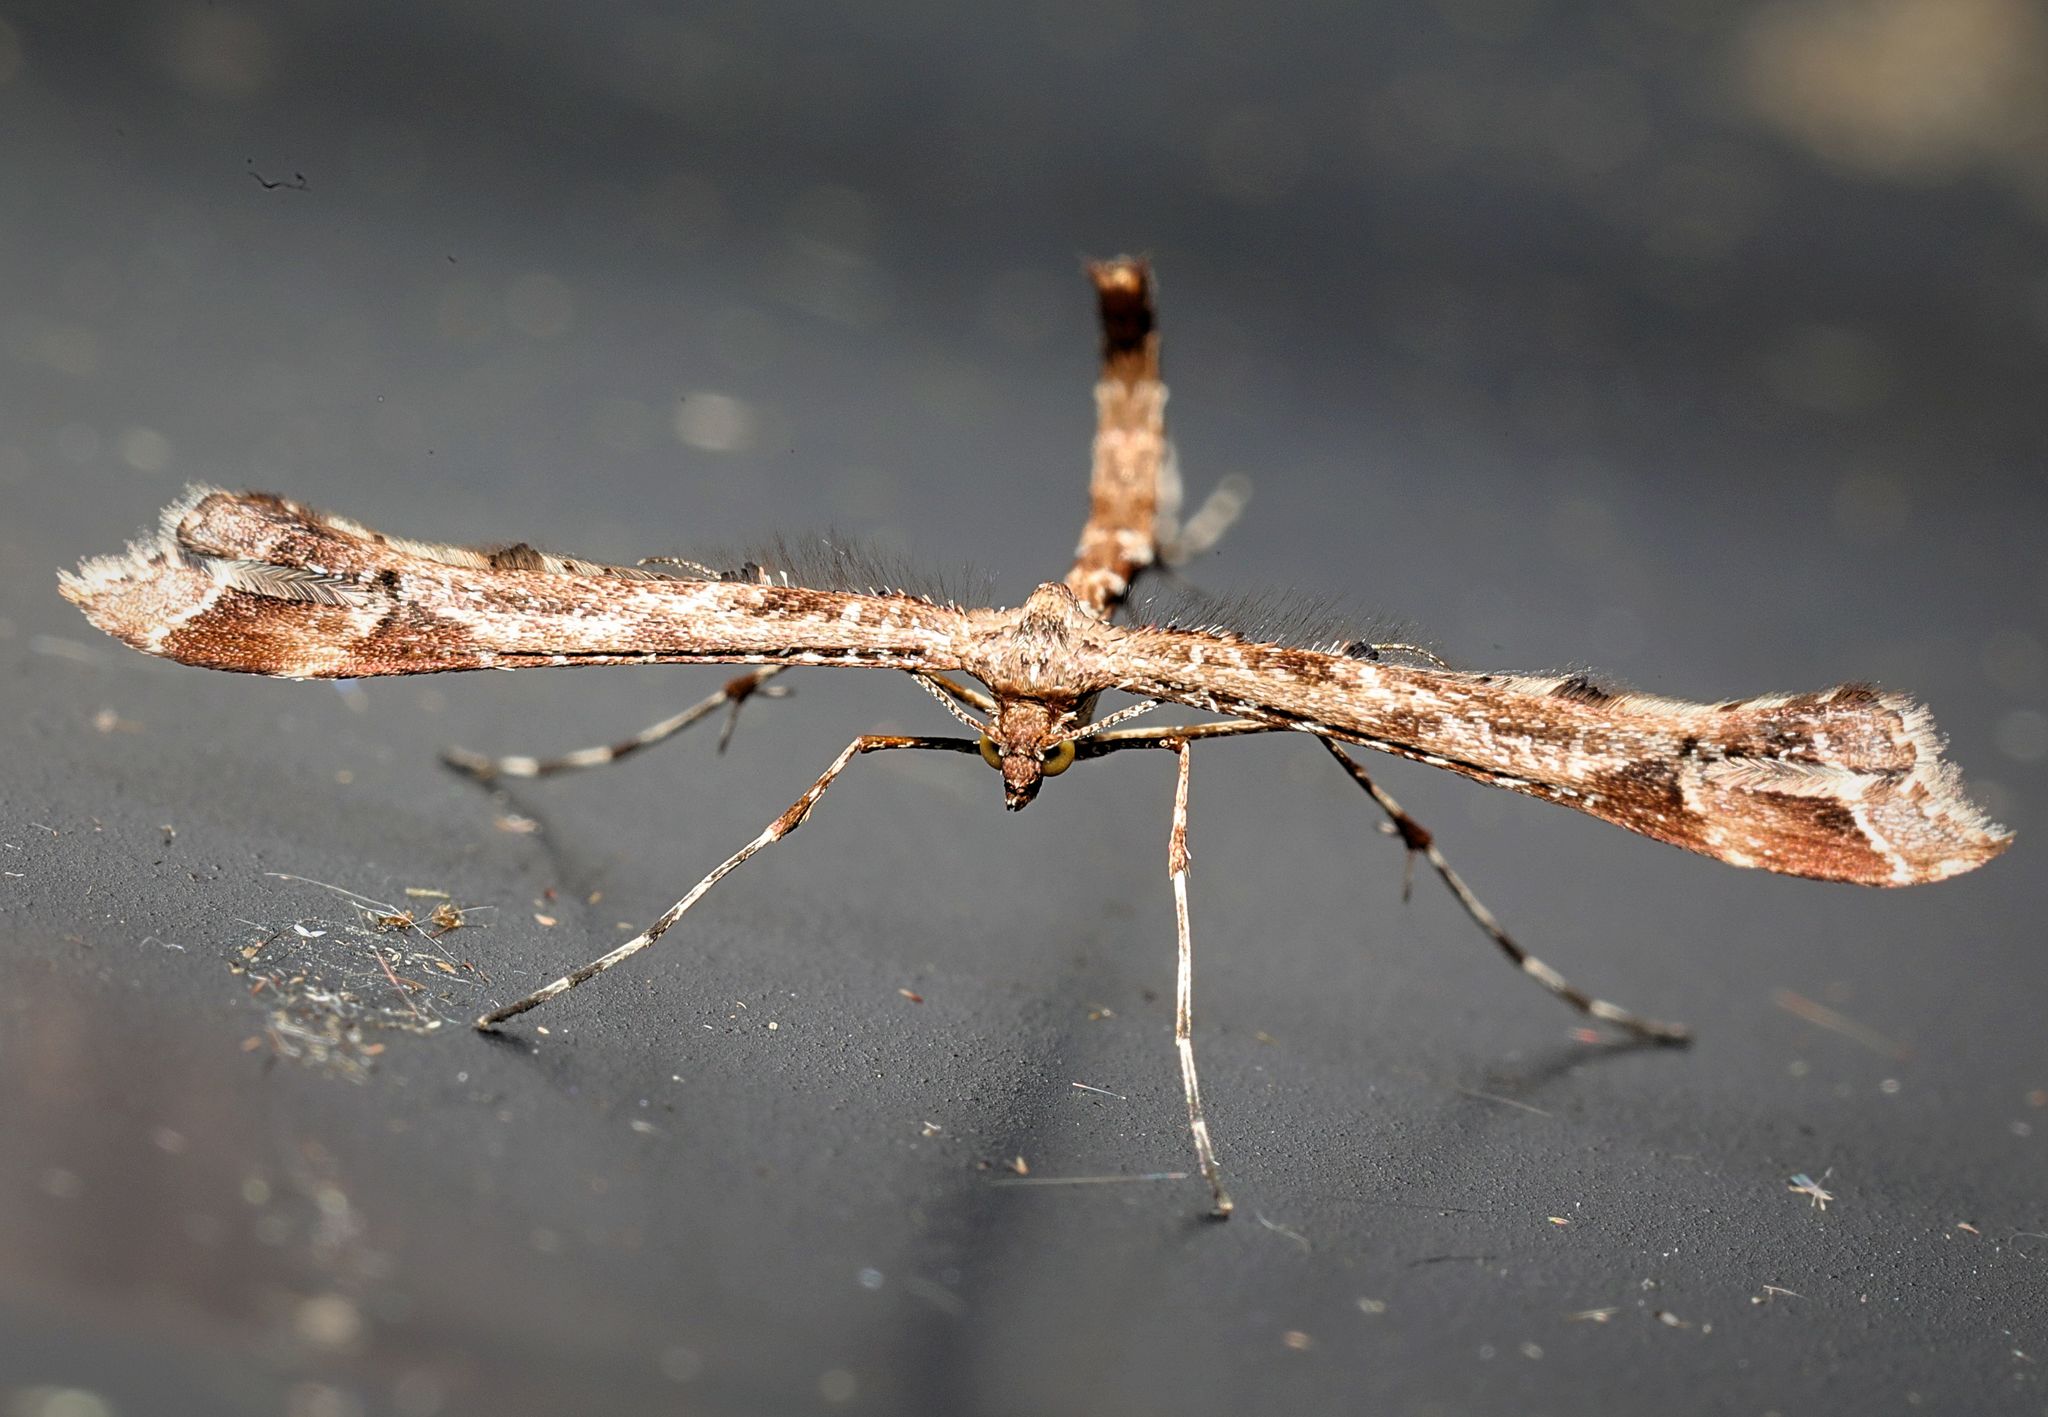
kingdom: Animalia
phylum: Arthropoda
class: Insecta
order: Lepidoptera
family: Pterophoridae
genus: Amblyptilia
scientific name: Amblyptilia acanthadactyla
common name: Beautiful plume
